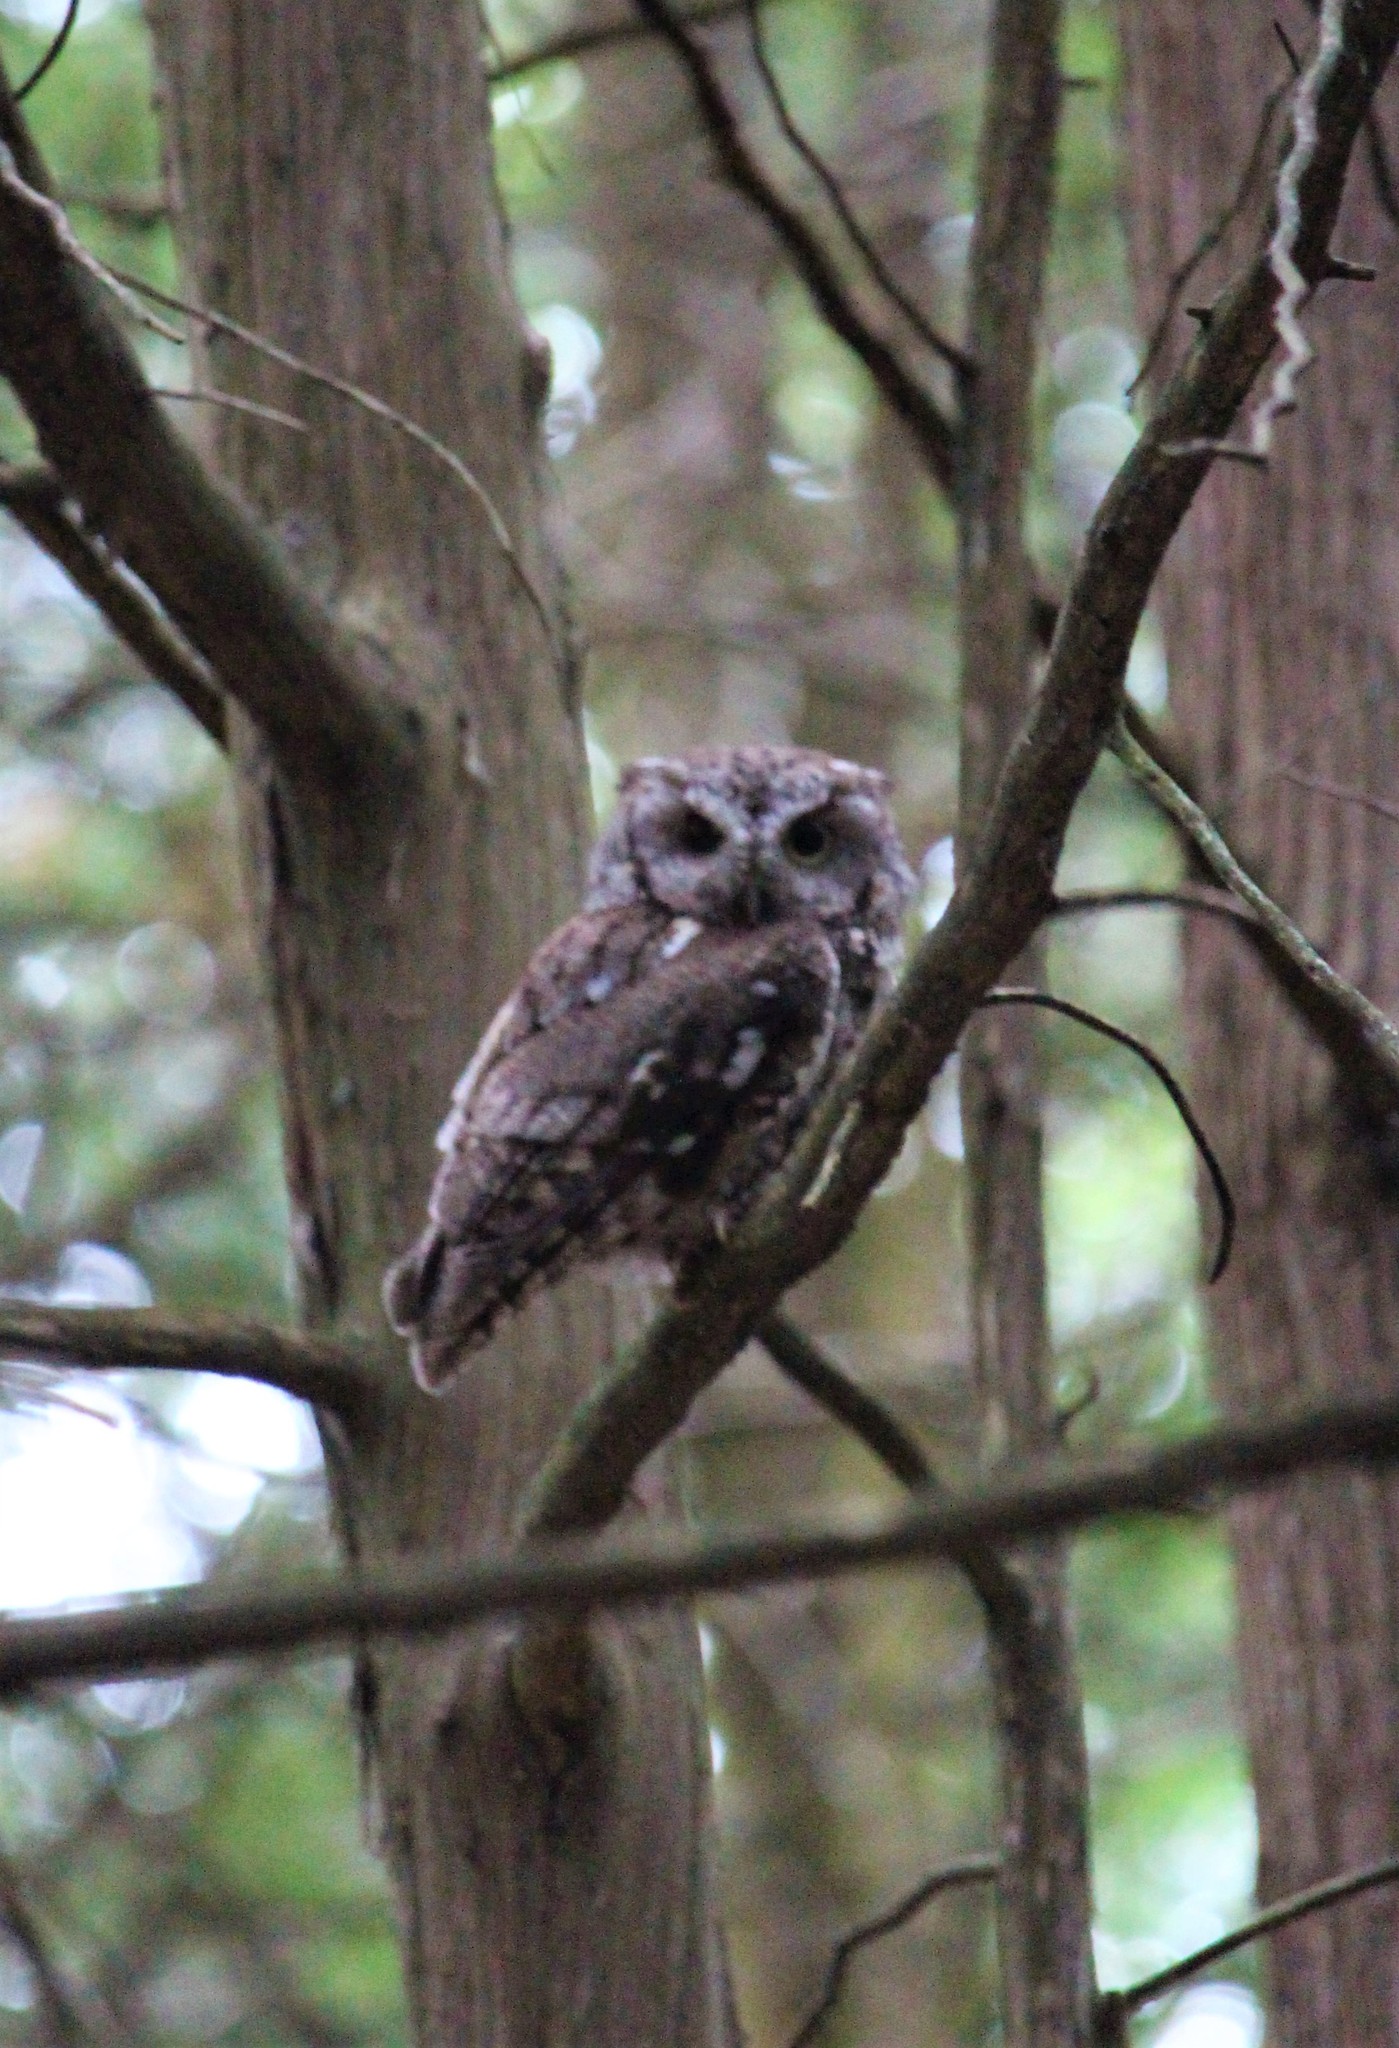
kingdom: Animalia
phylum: Chordata
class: Aves
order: Strigiformes
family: Strigidae
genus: Megascops
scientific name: Megascops asio
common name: Eastern screech-owl
